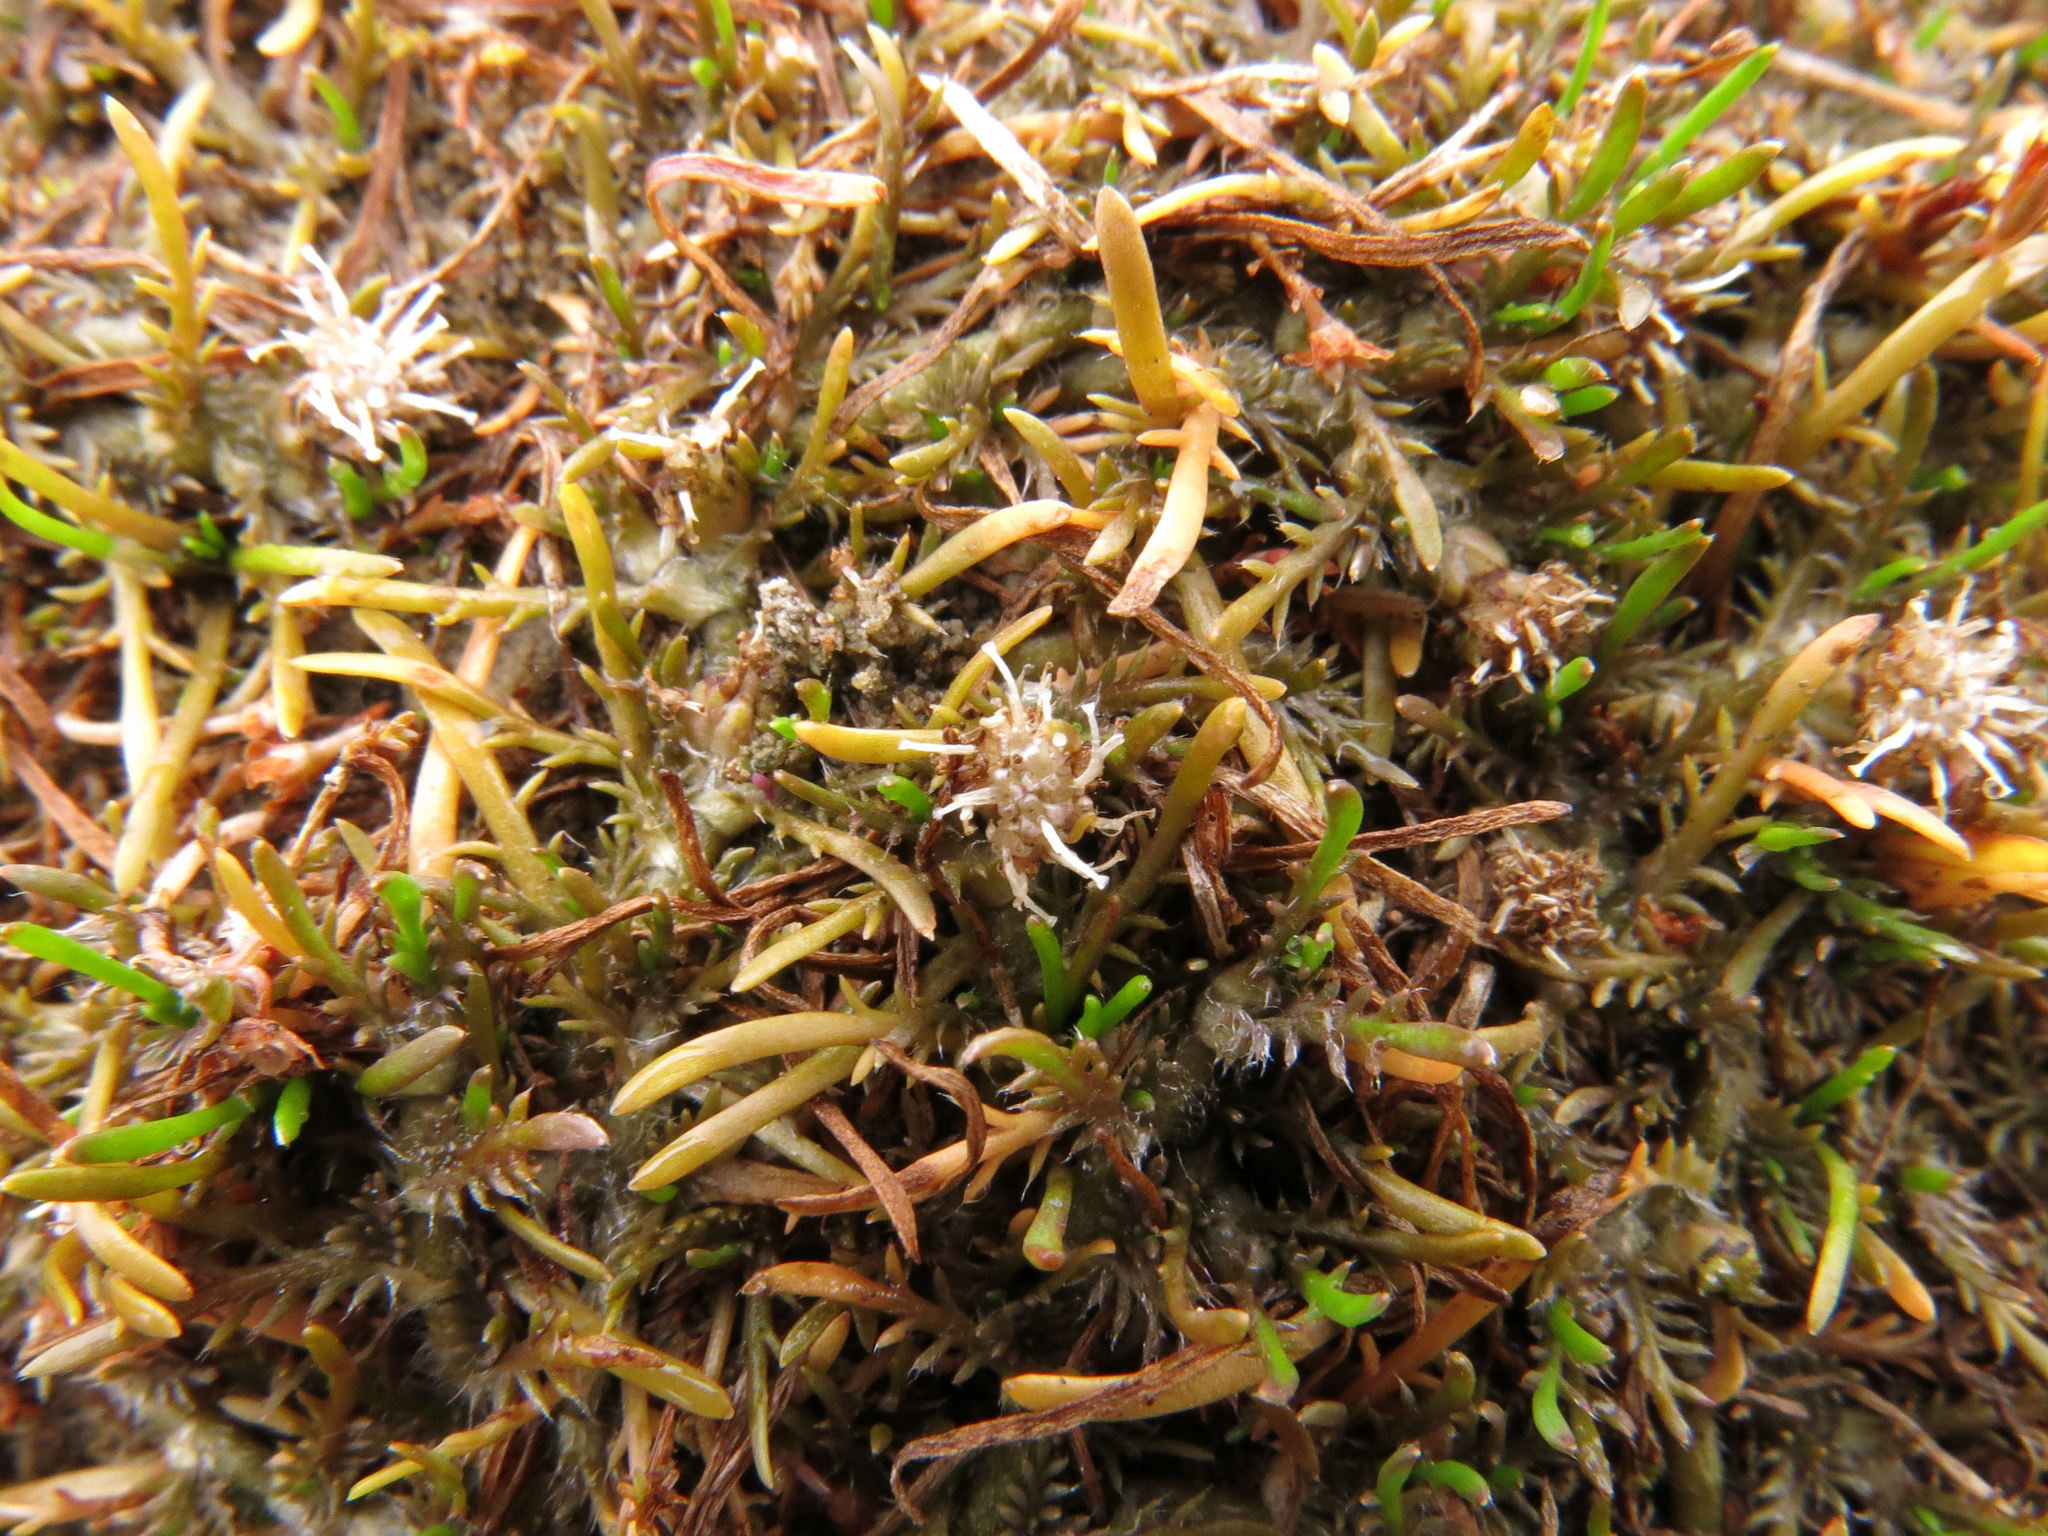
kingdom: Plantae
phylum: Tracheophyta
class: Magnoliopsida
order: Asterales
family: Asteraceae
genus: Leptinella
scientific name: Leptinella maniototo
